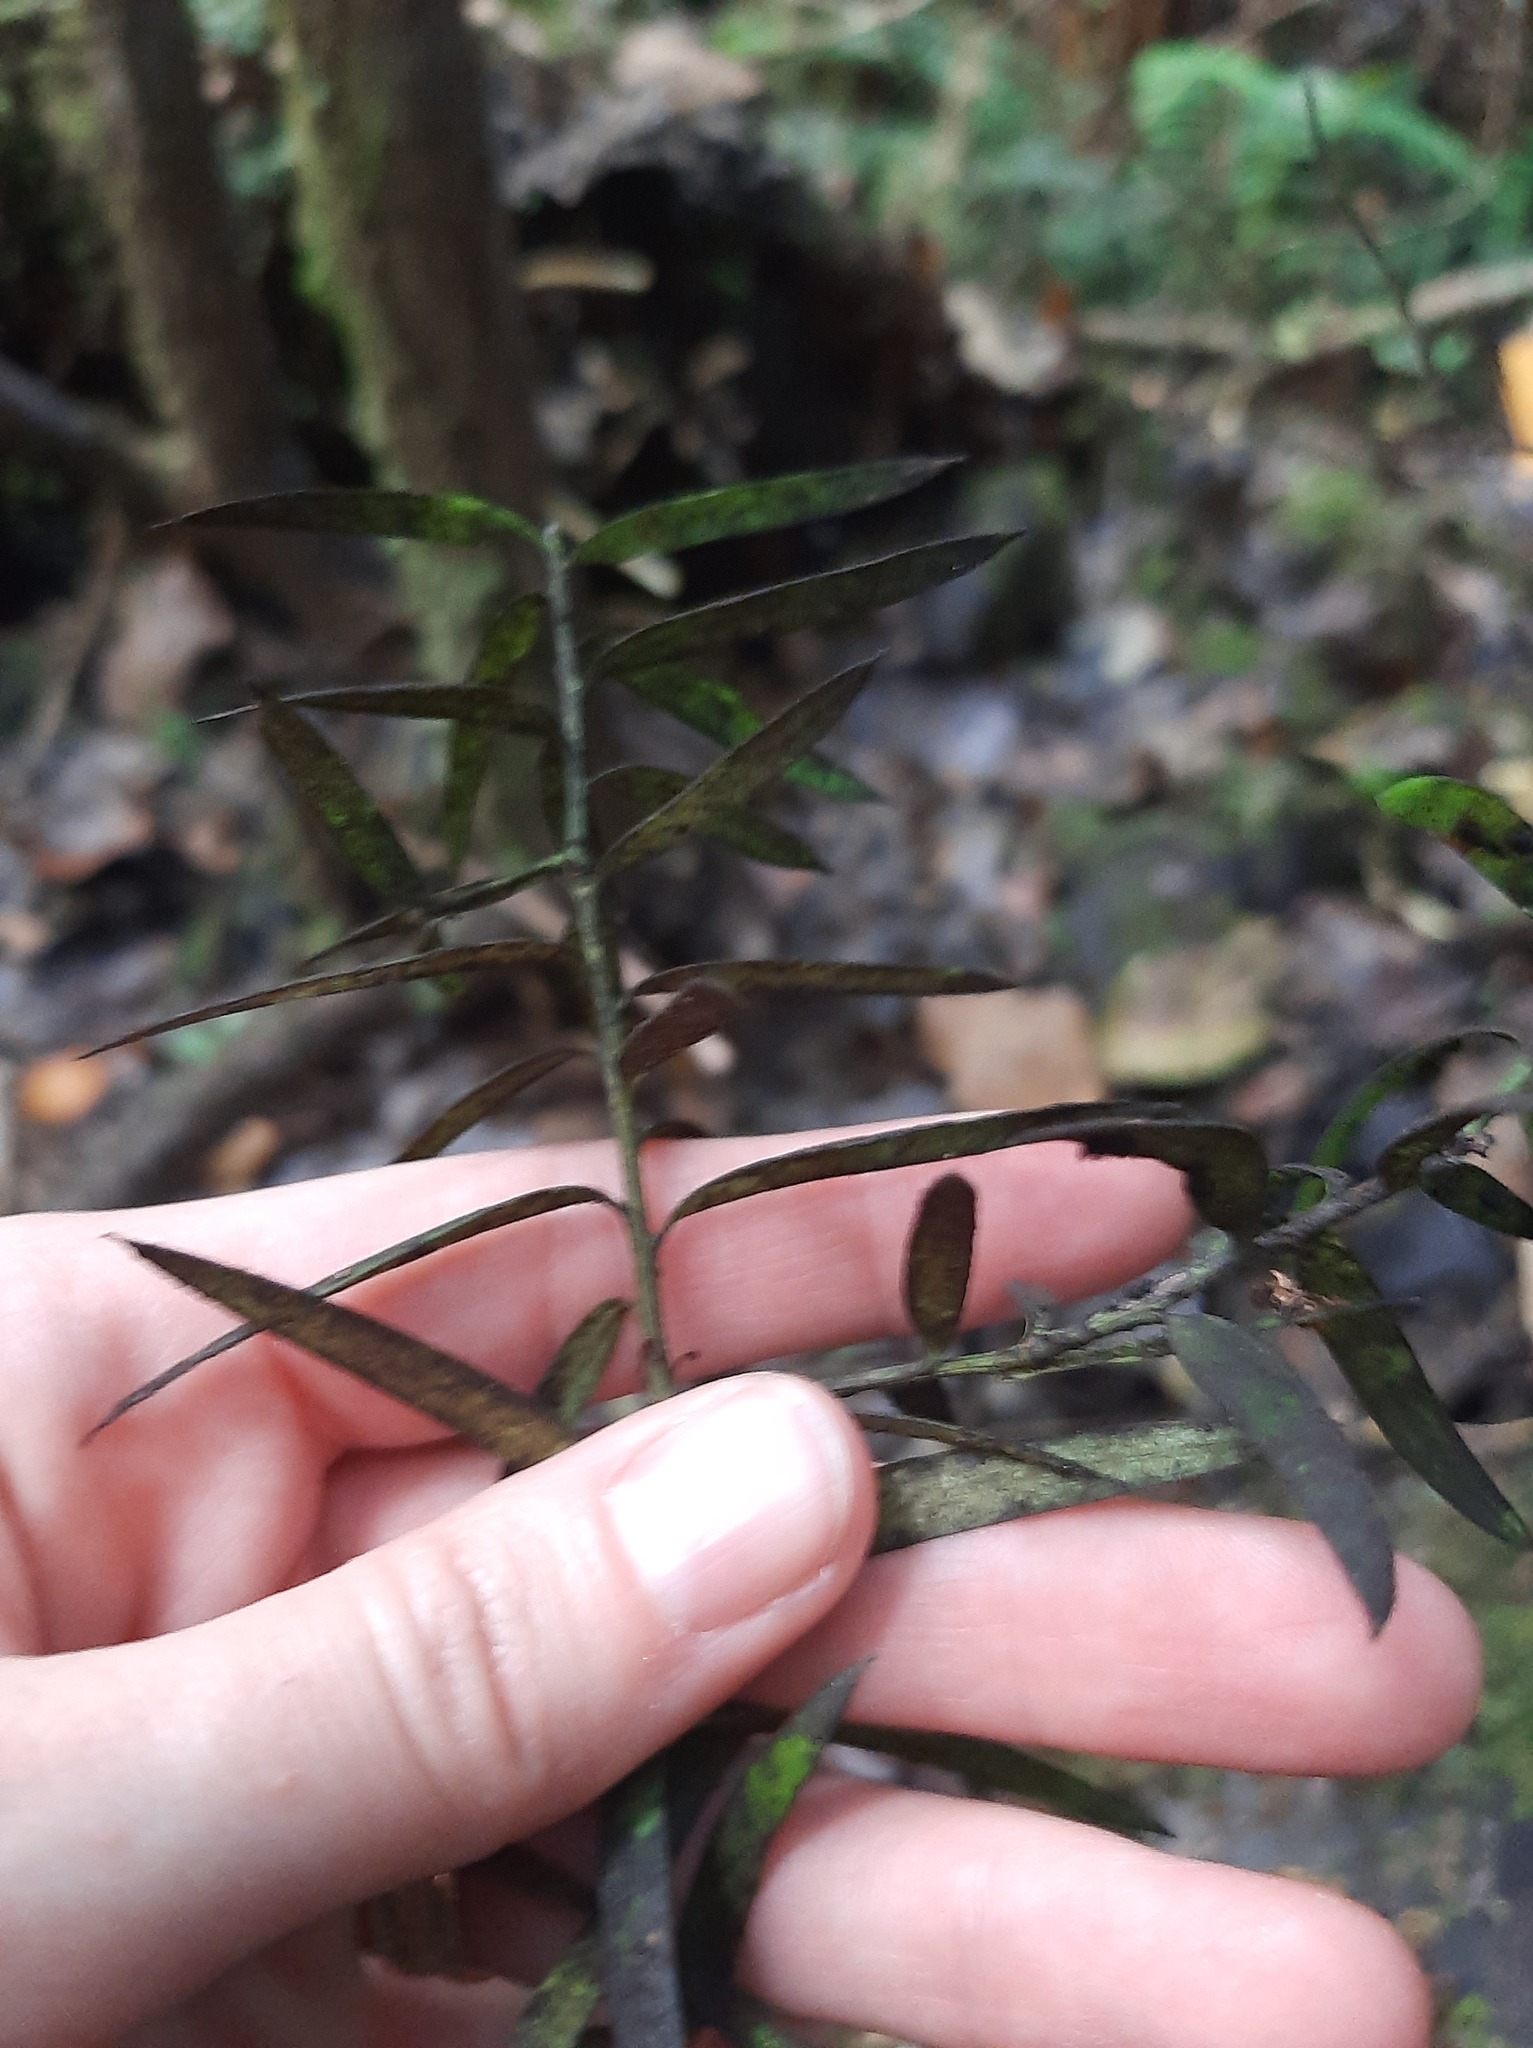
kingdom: Plantae
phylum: Tracheophyta
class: Pinopsida
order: Pinales
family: Podocarpaceae
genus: Podocarpus
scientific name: Podocarpus laetus
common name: Hall's totara
